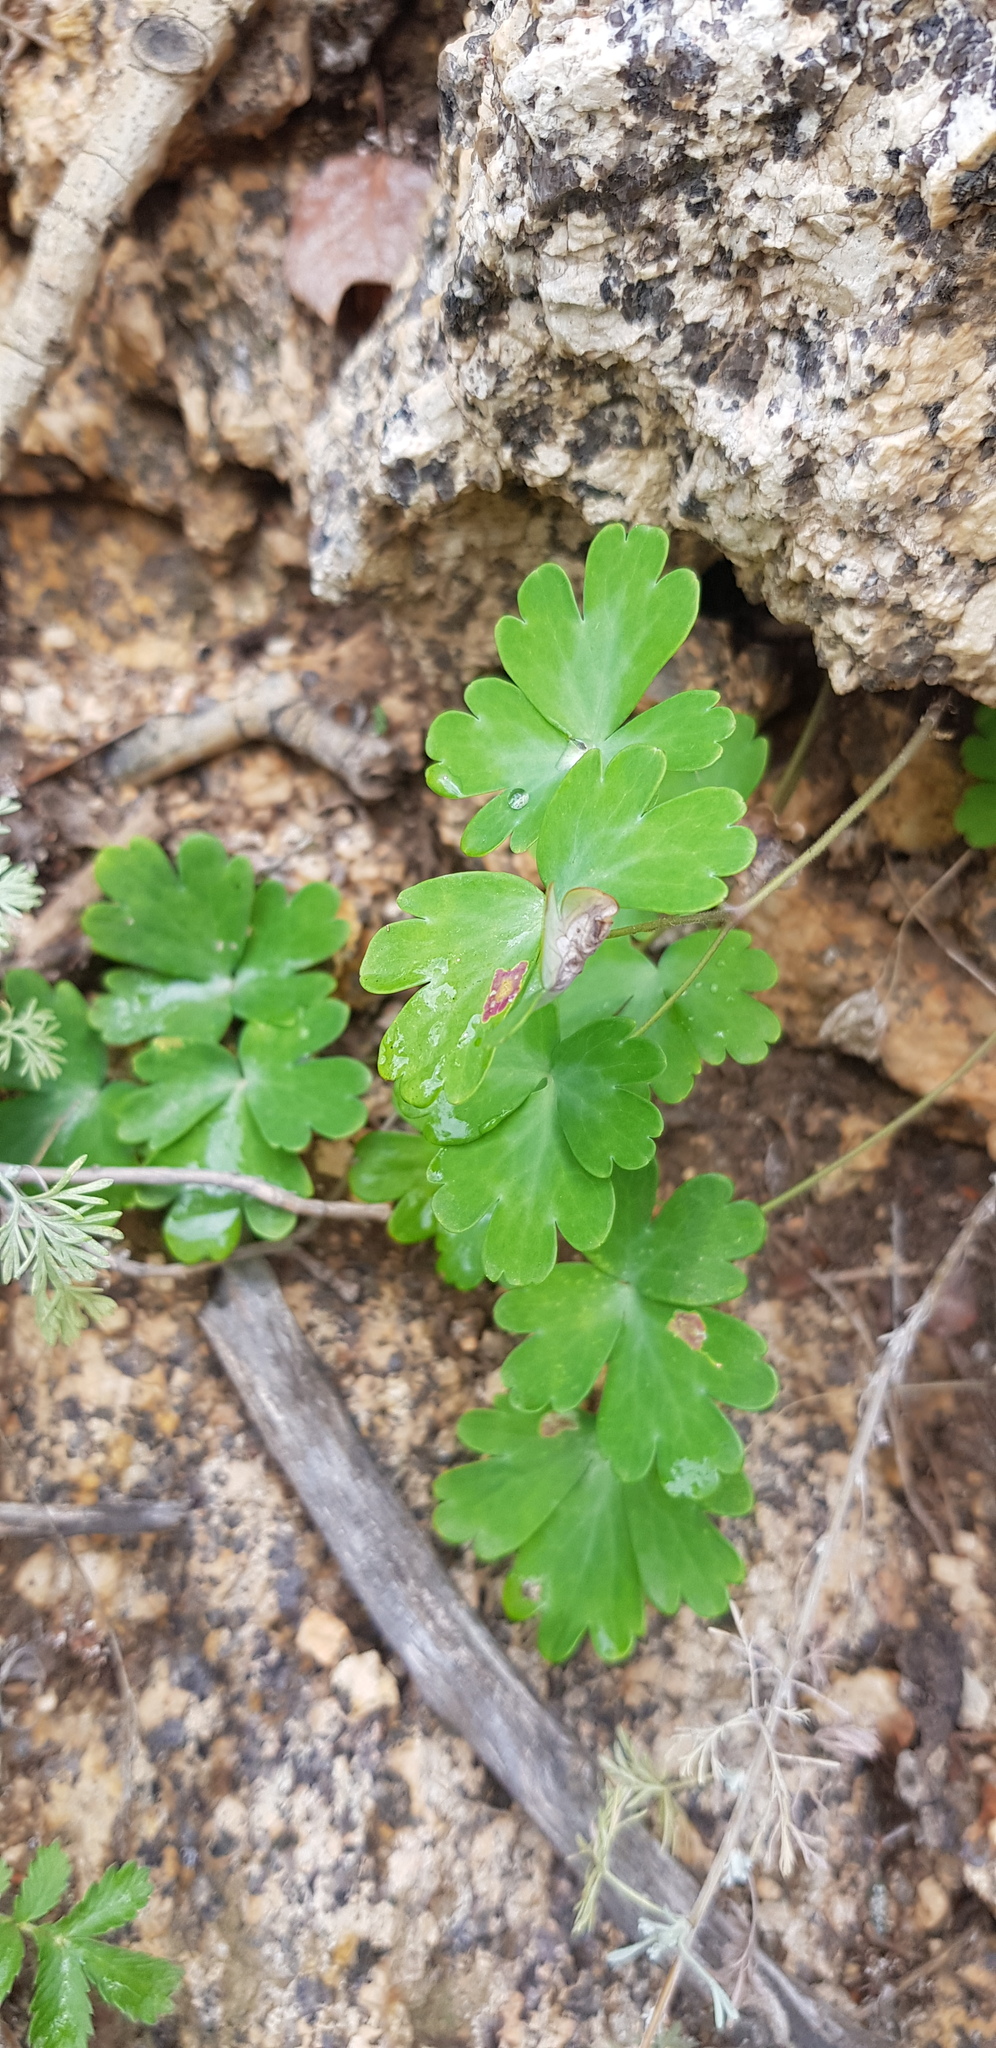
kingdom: Plantae
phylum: Tracheophyta
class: Magnoliopsida
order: Ranunculales
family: Ranunculaceae
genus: Aquilegia
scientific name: Aquilegia viridiflora
